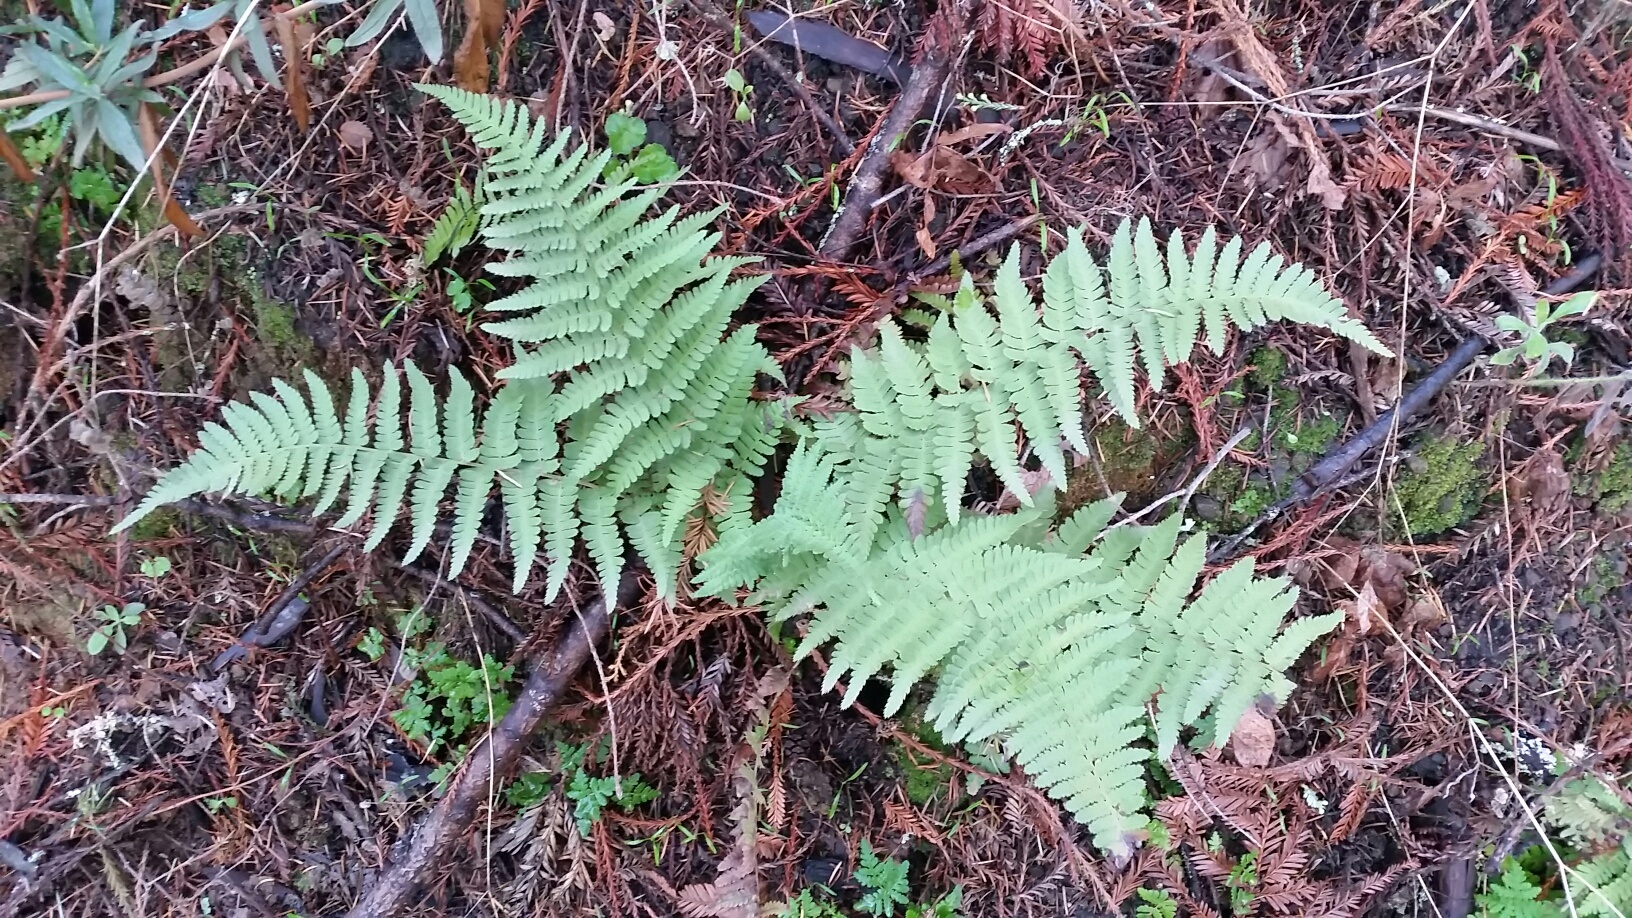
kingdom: Plantae
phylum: Tracheophyta
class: Polypodiopsida
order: Polypodiales
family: Dryopteridaceae
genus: Dryopteris
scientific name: Dryopteris arguta
